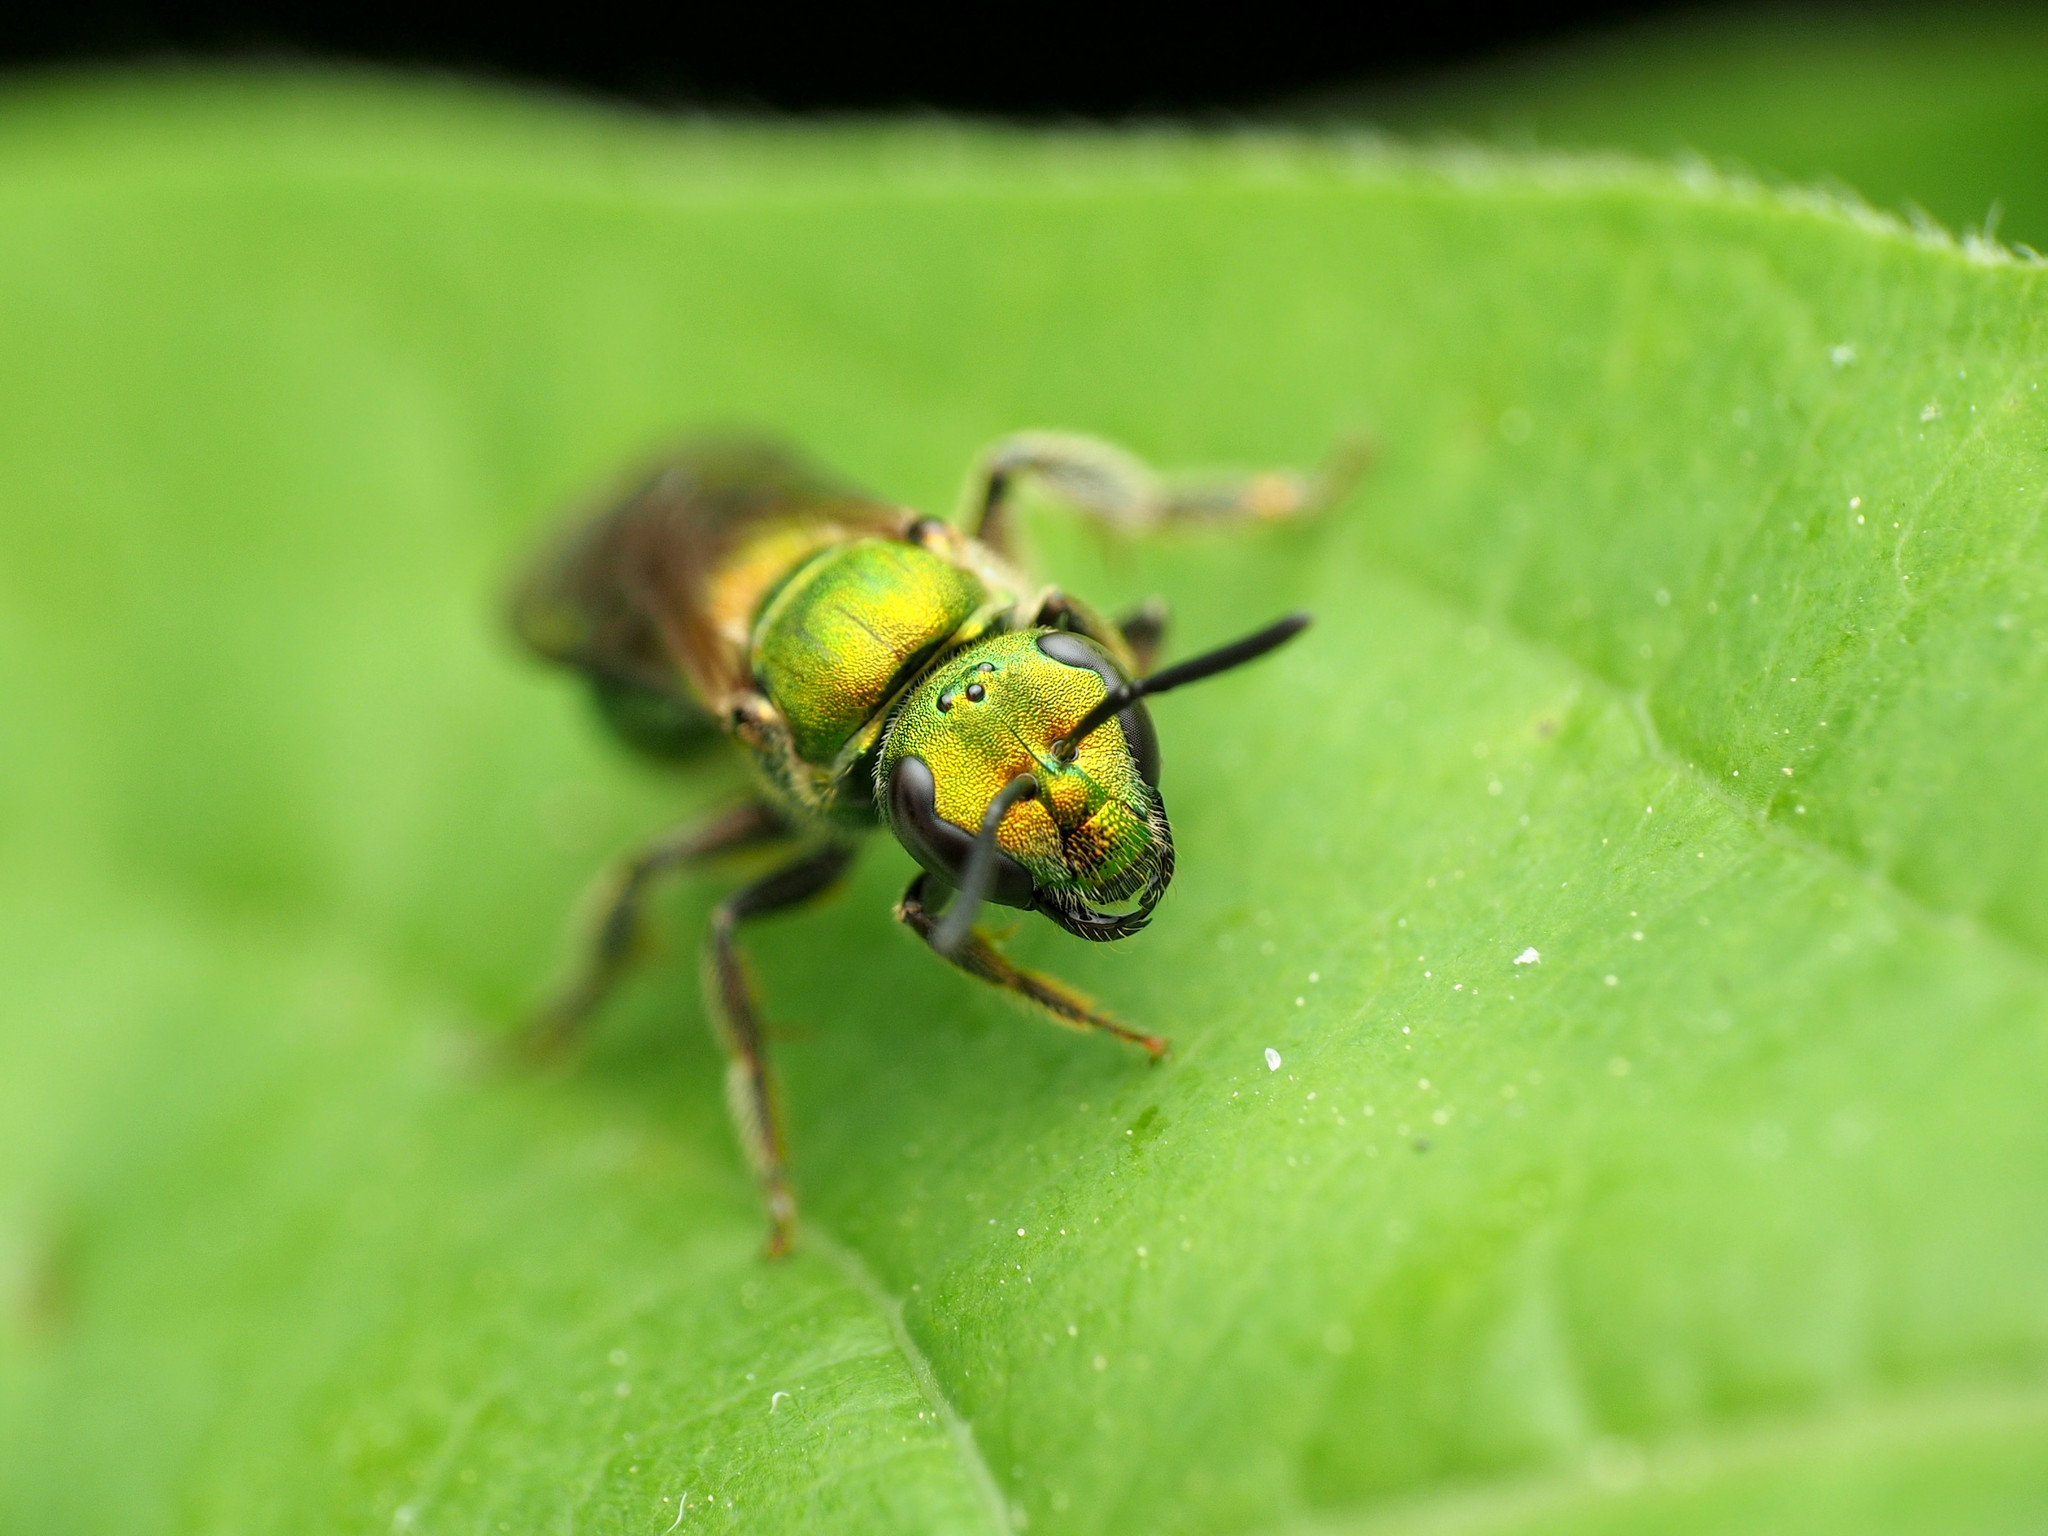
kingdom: Animalia
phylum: Arthropoda
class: Insecta
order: Hymenoptera
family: Halictidae
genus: Augochlora
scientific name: Augochlora pura
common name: Pure green sweat bee
